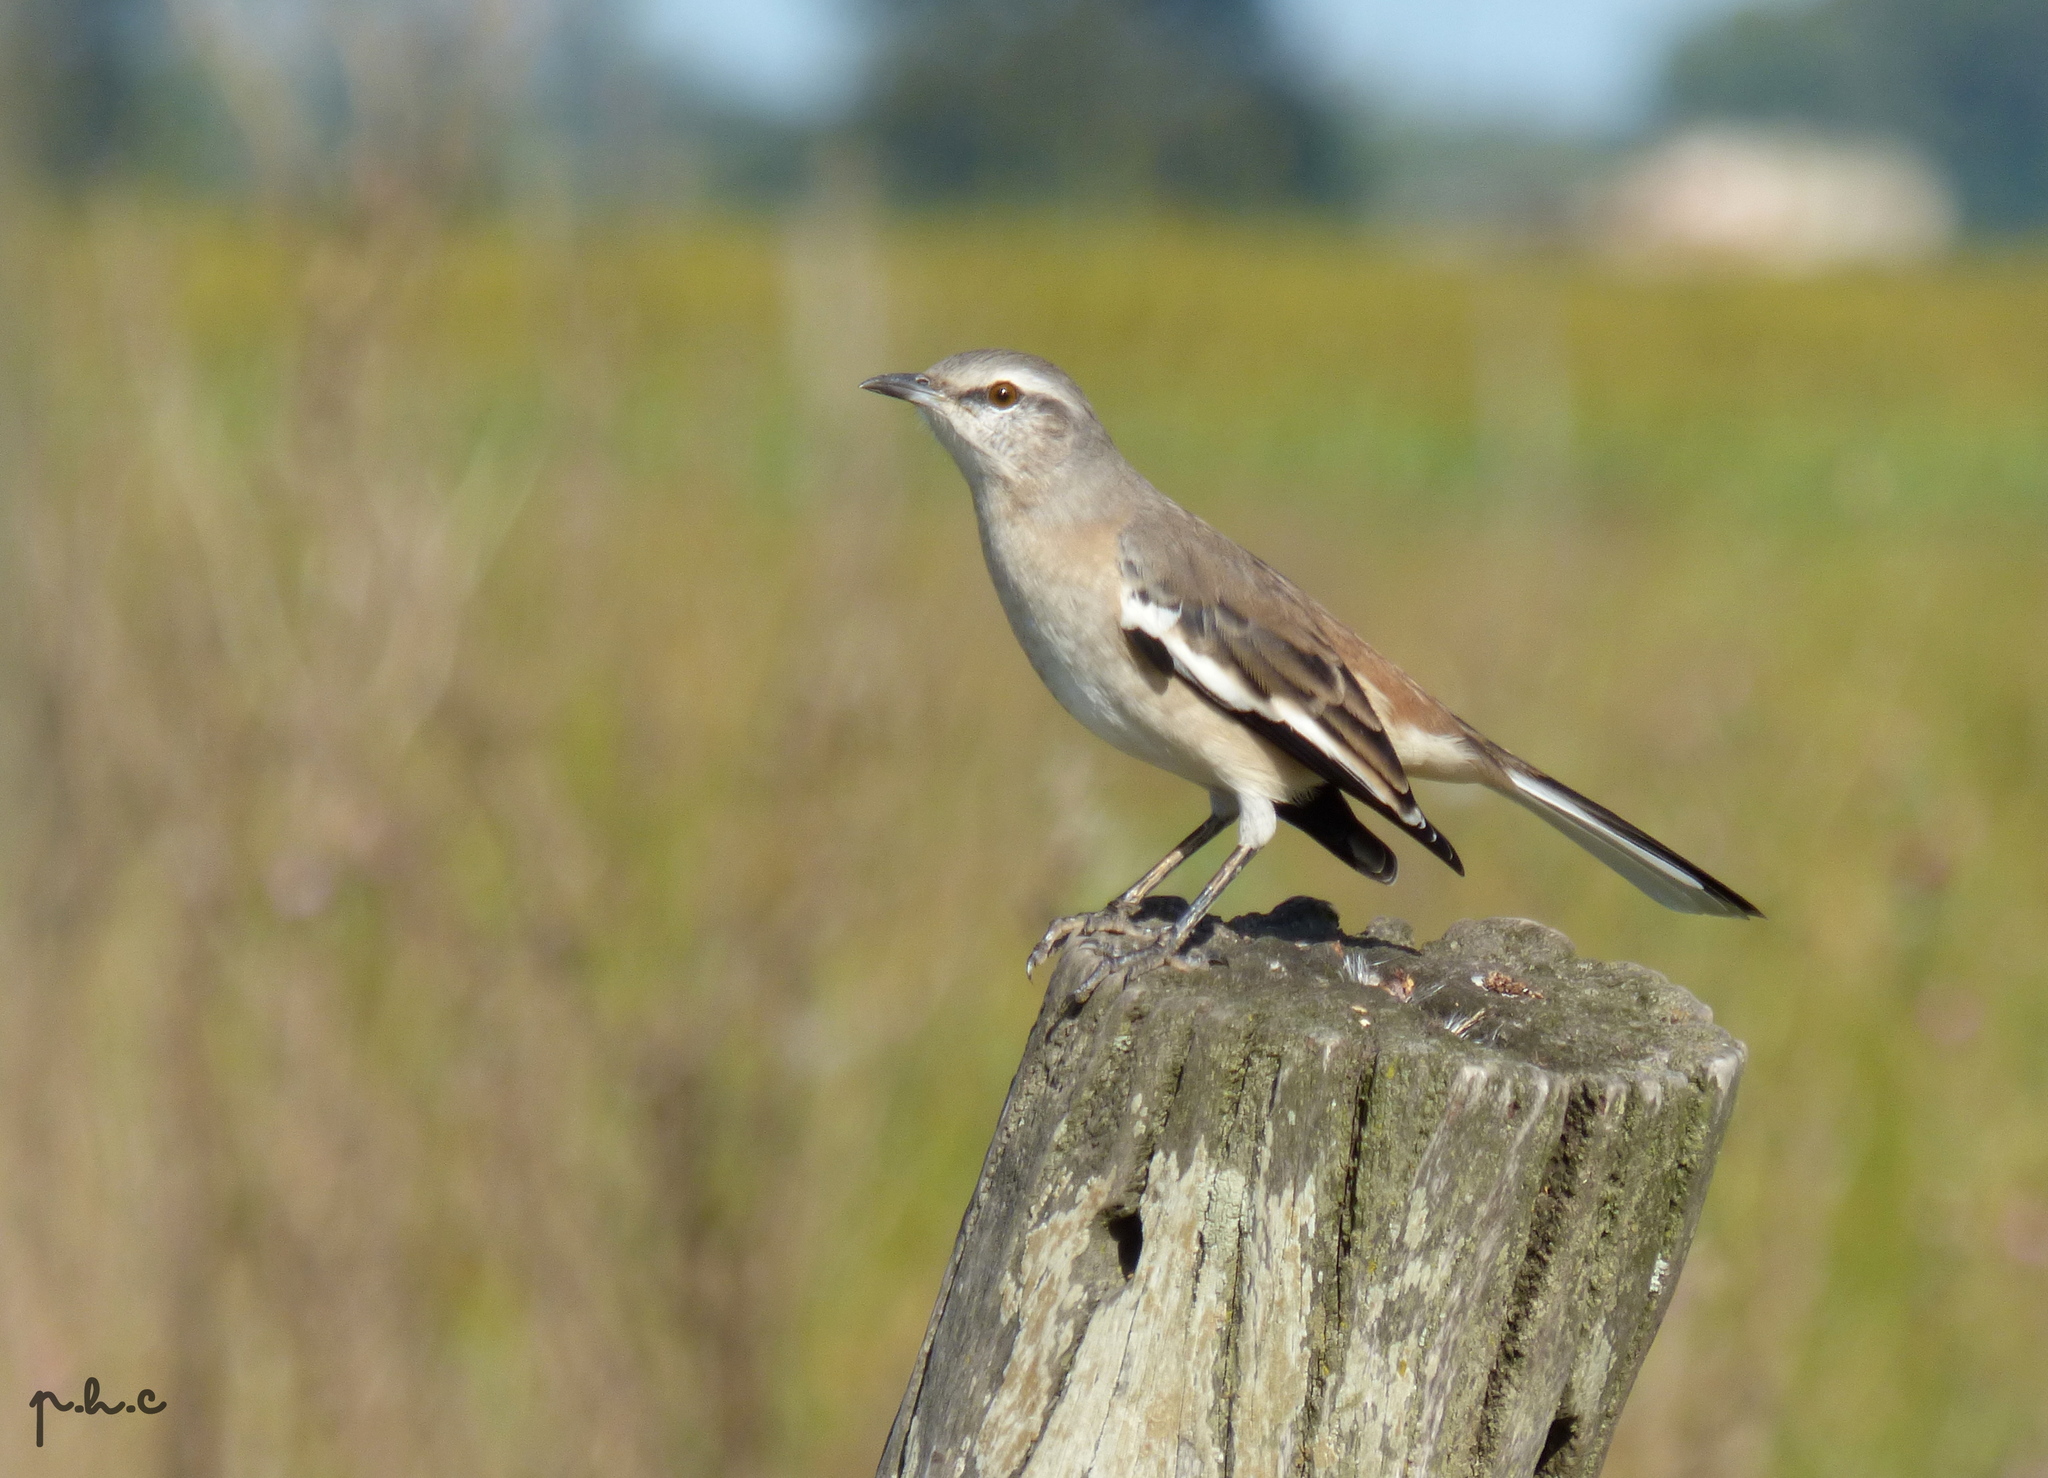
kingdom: Animalia
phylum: Chordata
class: Aves
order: Passeriformes
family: Mimidae
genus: Mimus
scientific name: Mimus triurus
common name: White-banded mockingbird
